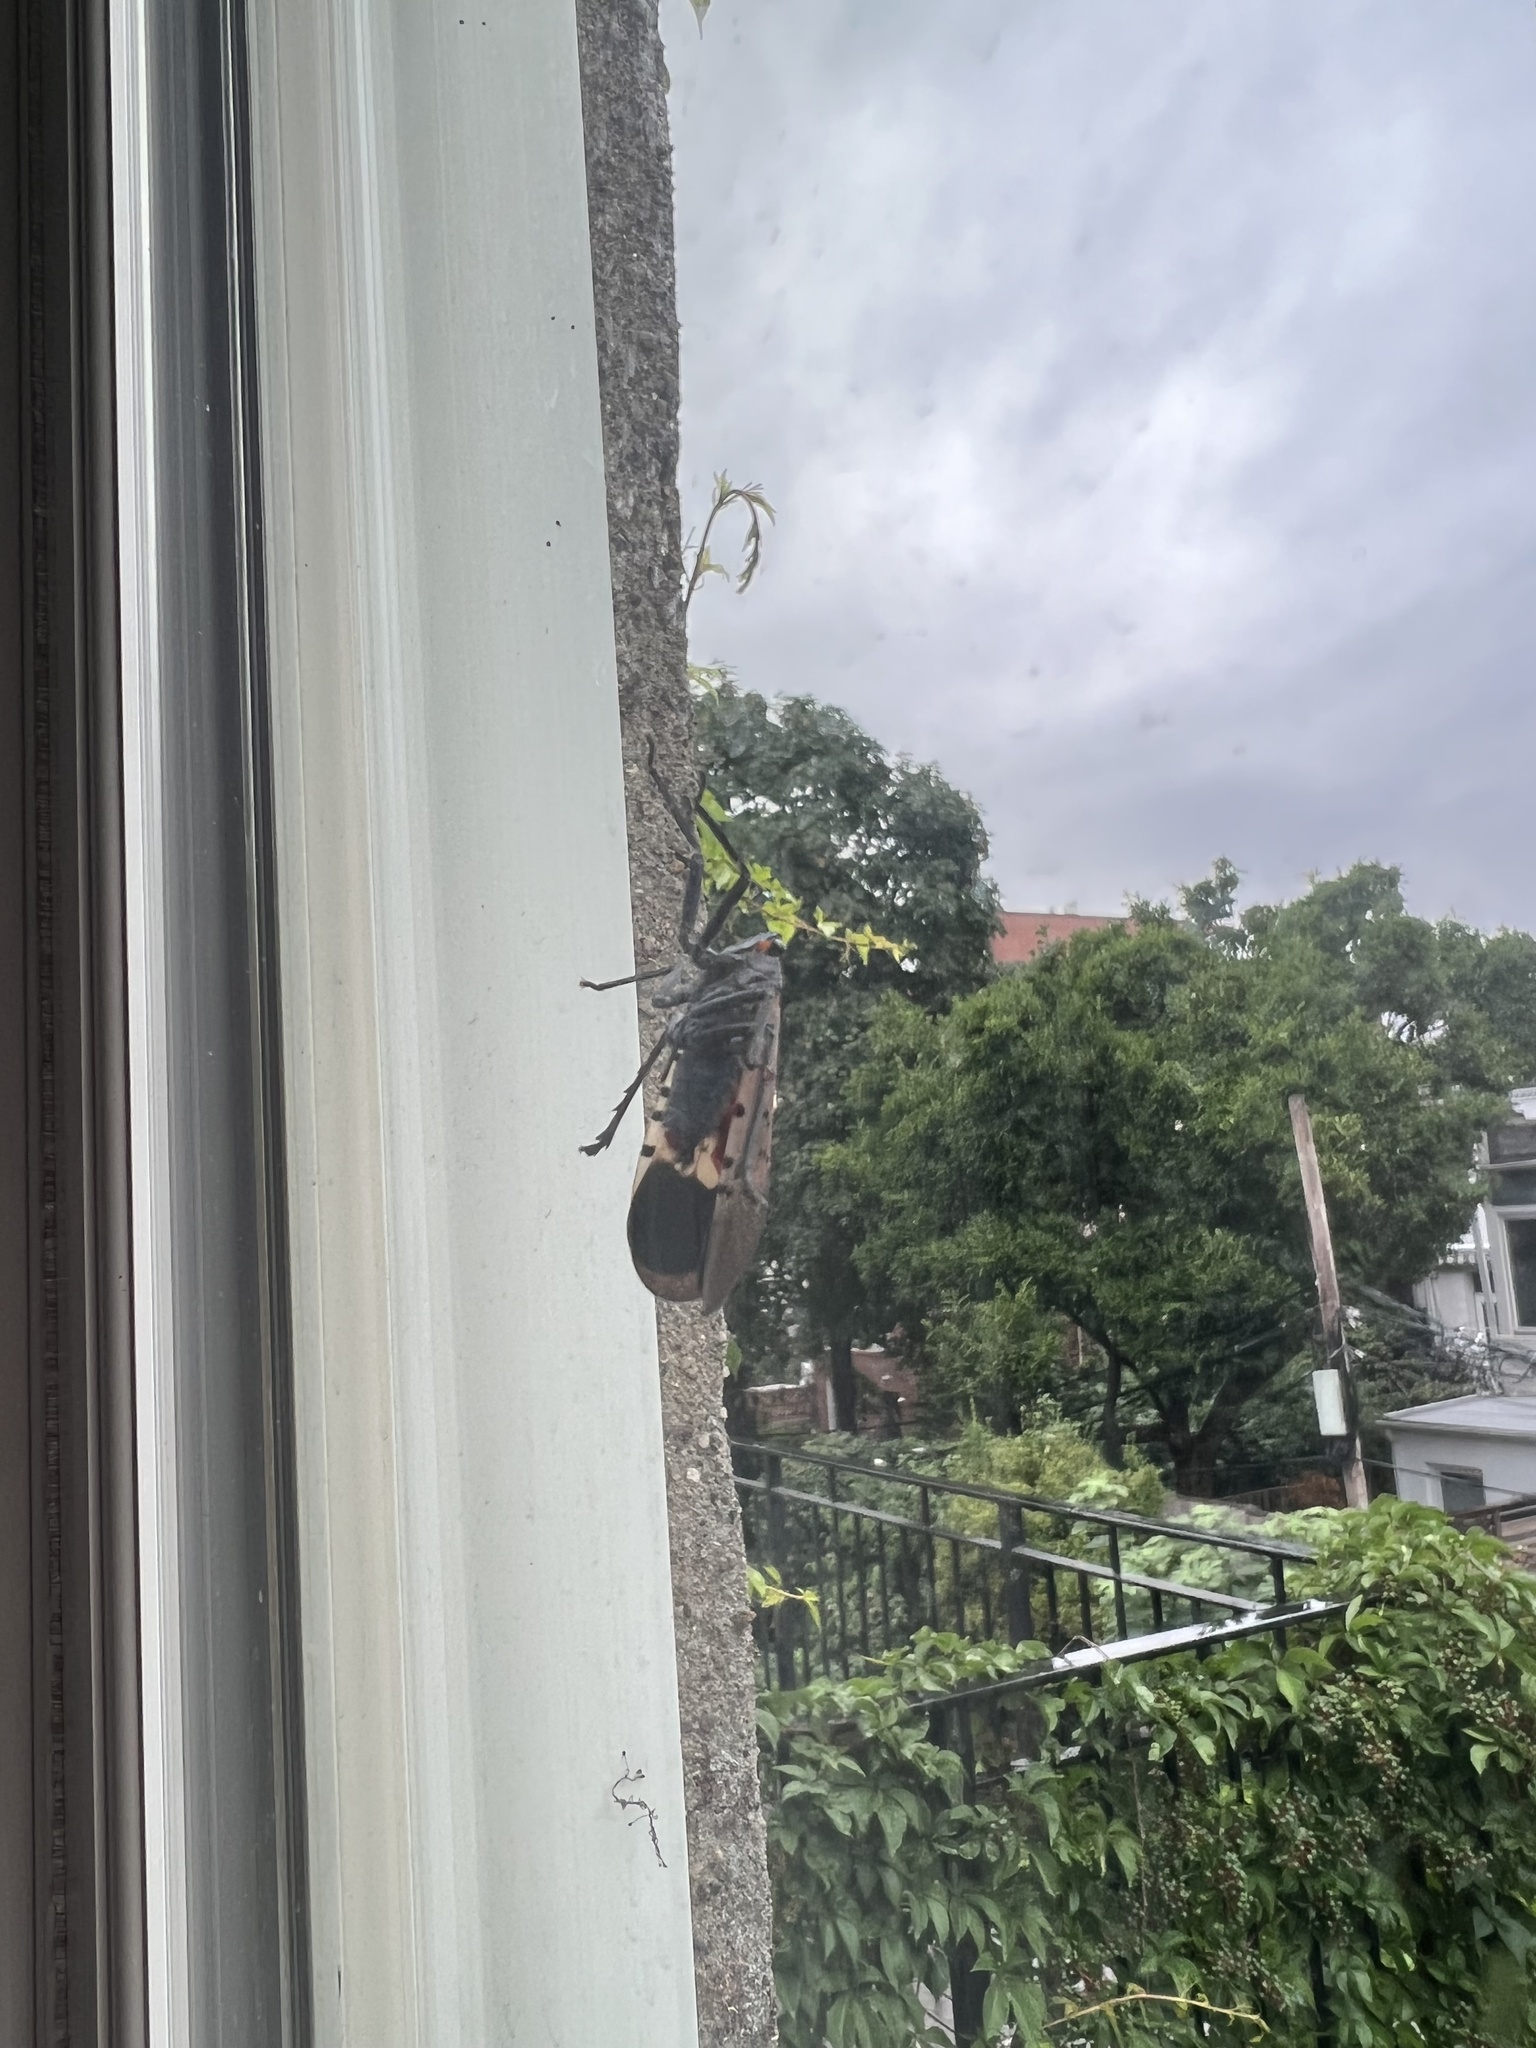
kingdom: Animalia
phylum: Arthropoda
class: Insecta
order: Hemiptera
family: Fulgoridae
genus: Lycorma
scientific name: Lycorma delicatula
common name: Spotted lanternfly
